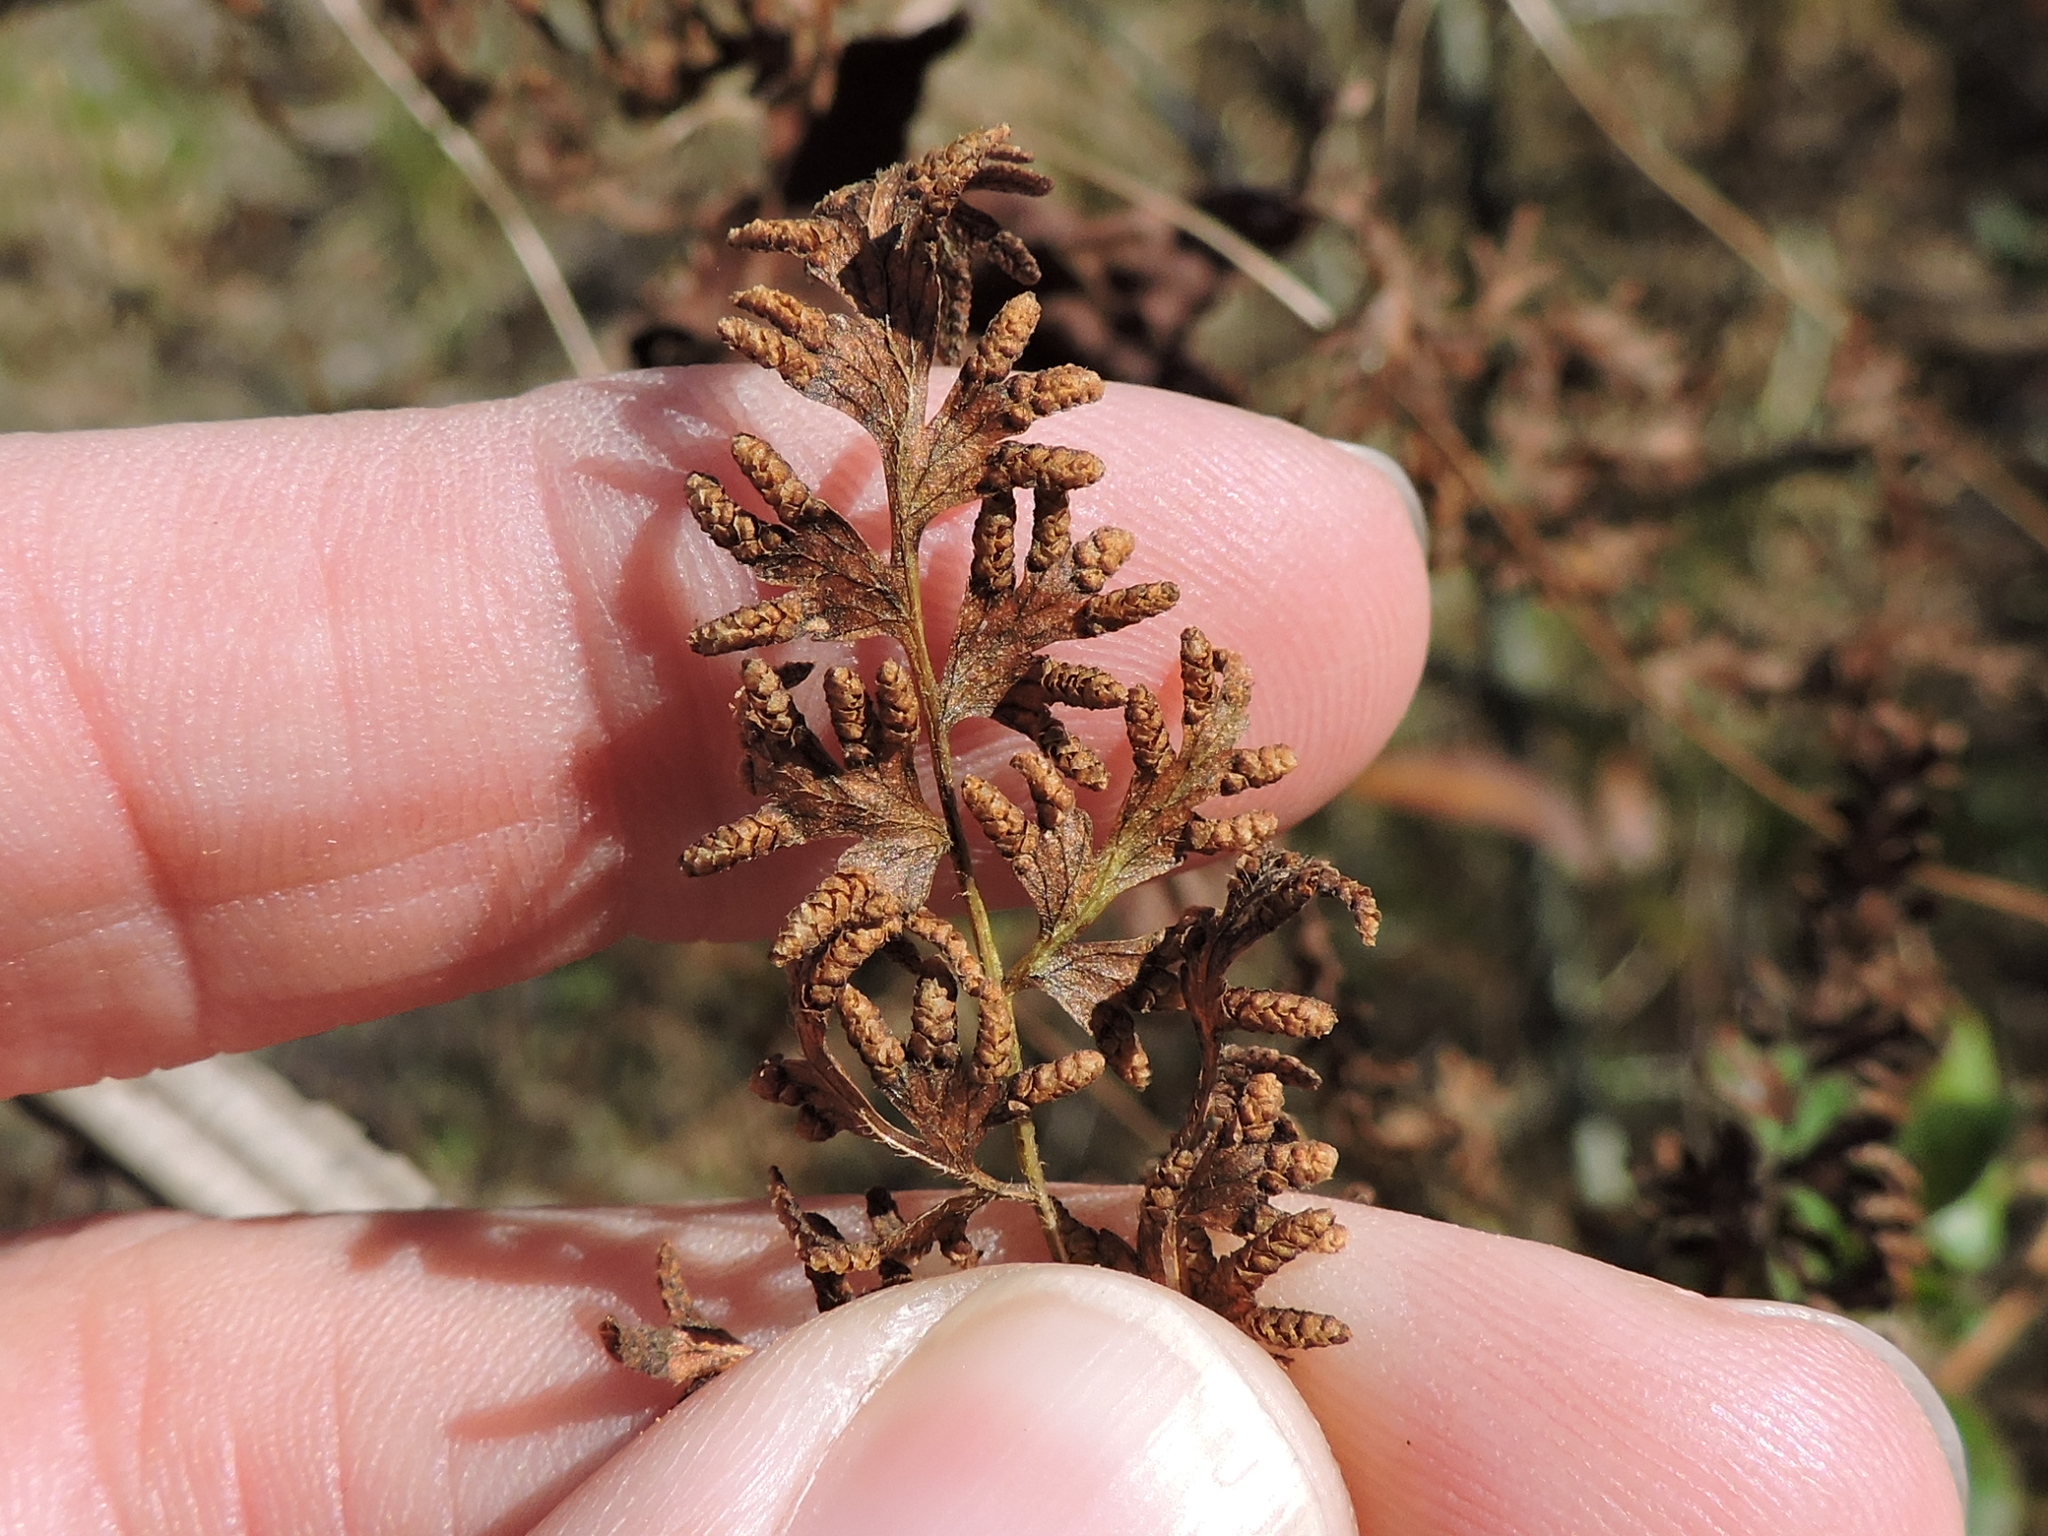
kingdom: Plantae
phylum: Tracheophyta
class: Polypodiopsida
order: Schizaeales
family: Lygodiaceae
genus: Lygodium
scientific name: Lygodium japonicum
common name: Japanese climbing fern
